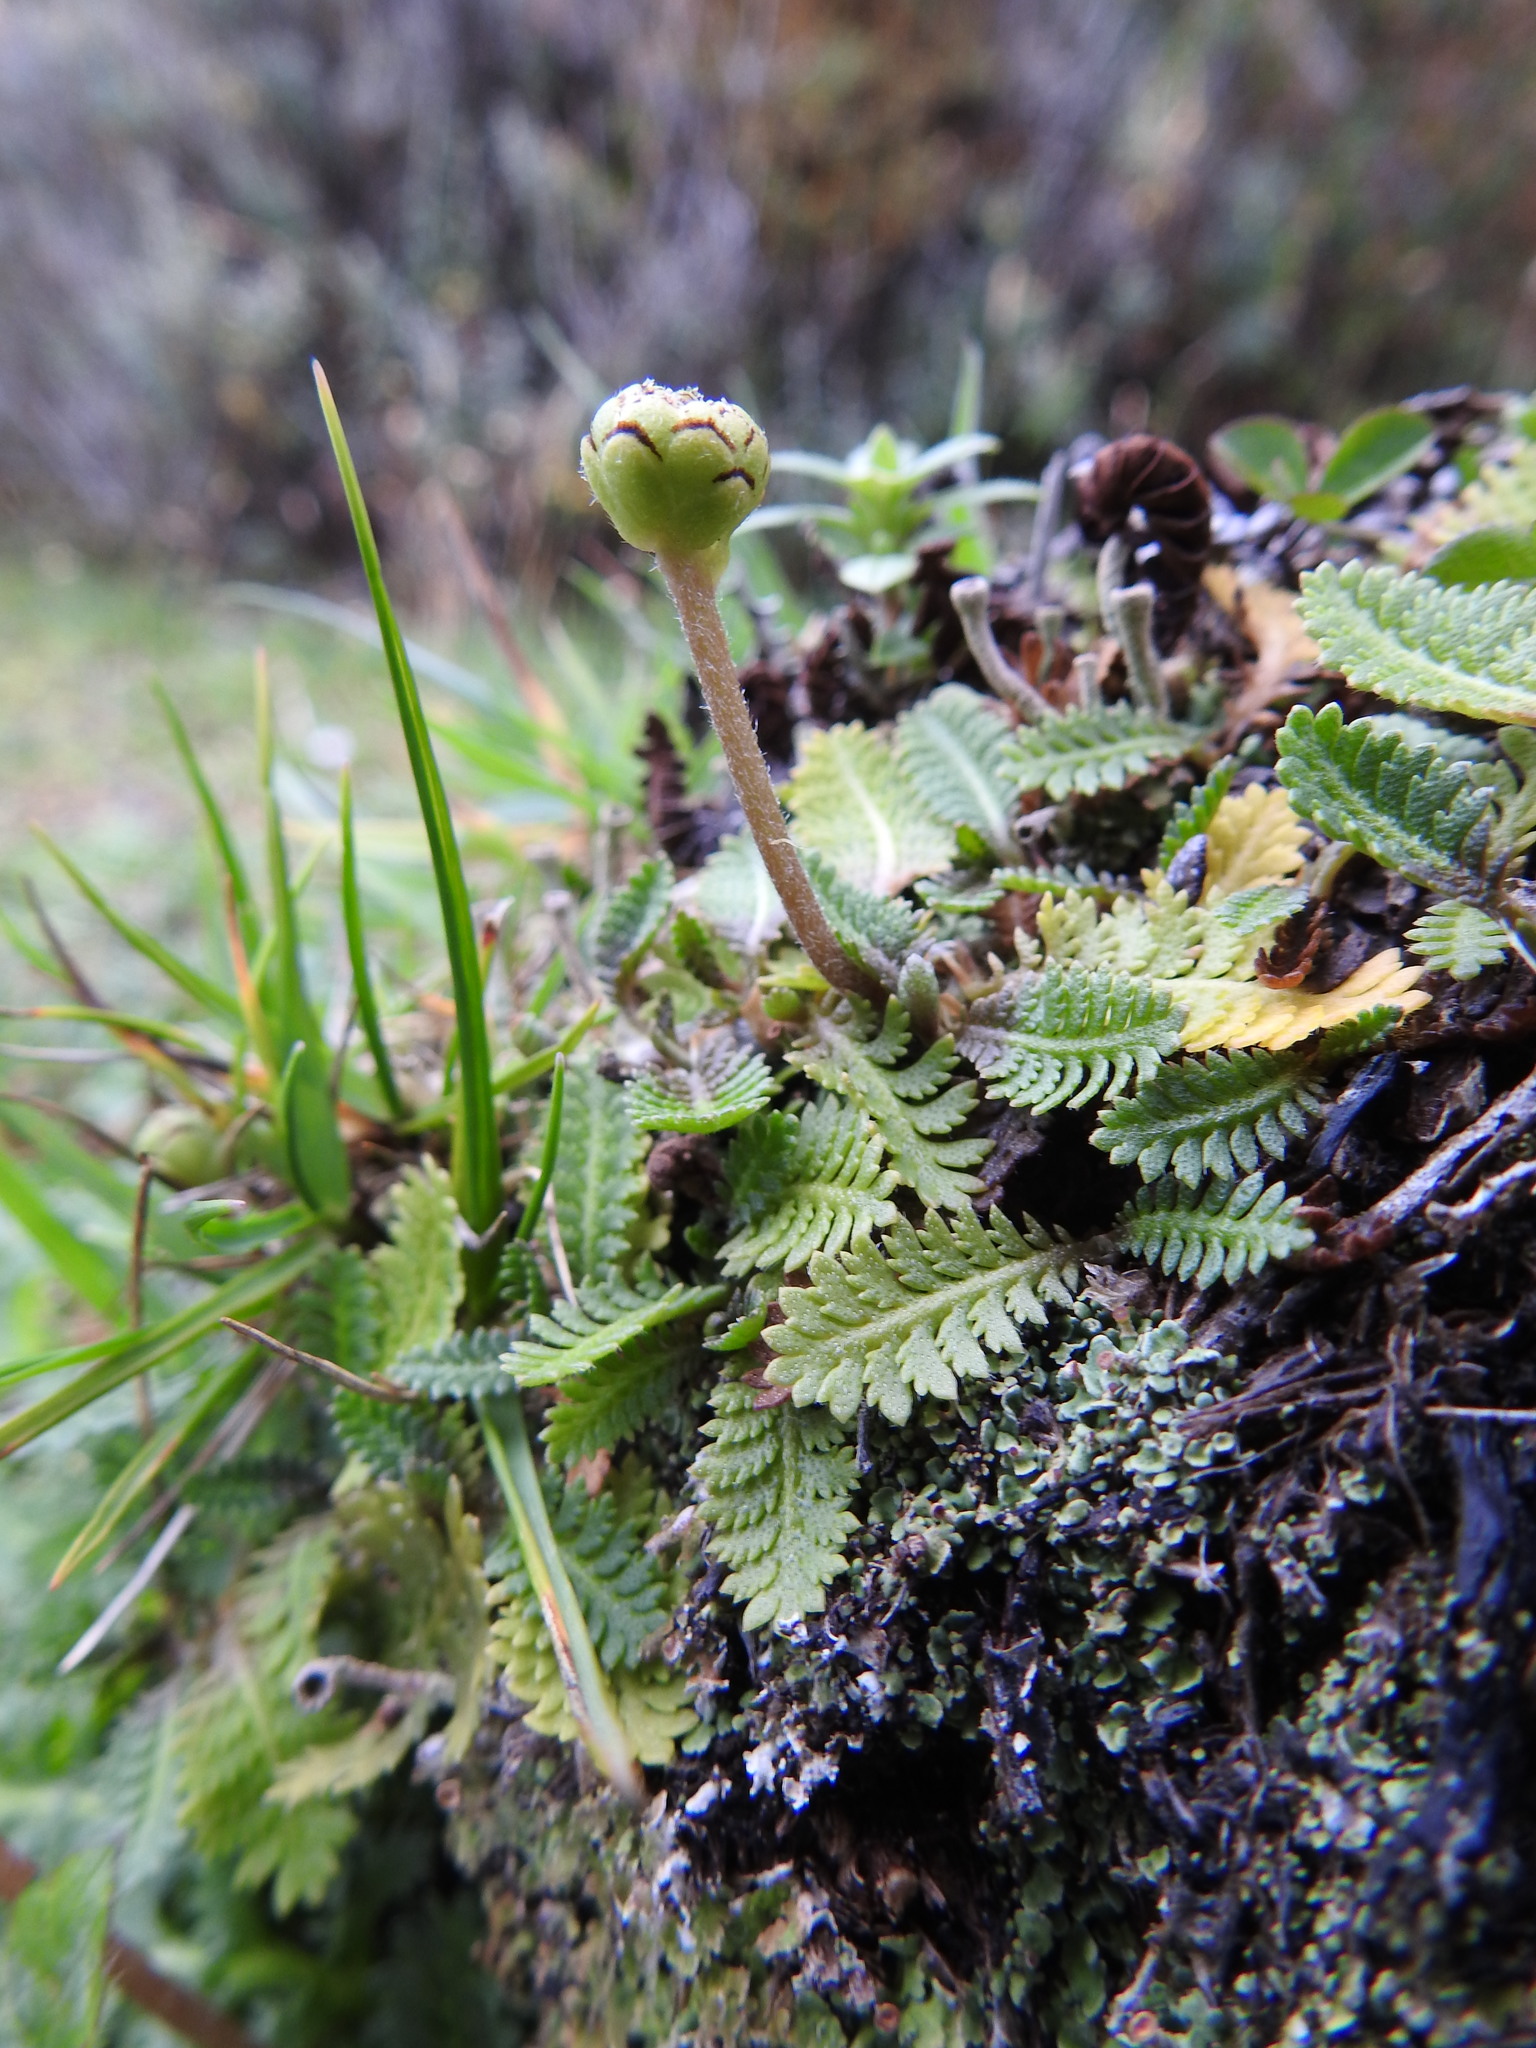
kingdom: Plantae
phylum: Tracheophyta
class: Magnoliopsida
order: Asterales
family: Asteraceae
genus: Leptinella
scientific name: Leptinella scariosa
